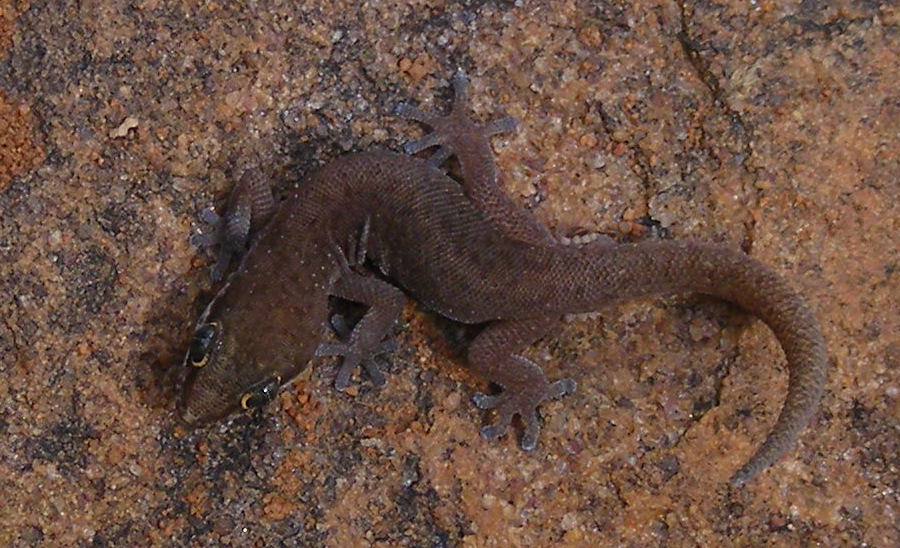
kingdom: Animalia
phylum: Chordata
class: Squamata
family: Gekkonidae
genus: Pachydactylus
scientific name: Pachydactylus punctatus
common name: Pointed thick-toed gecko
